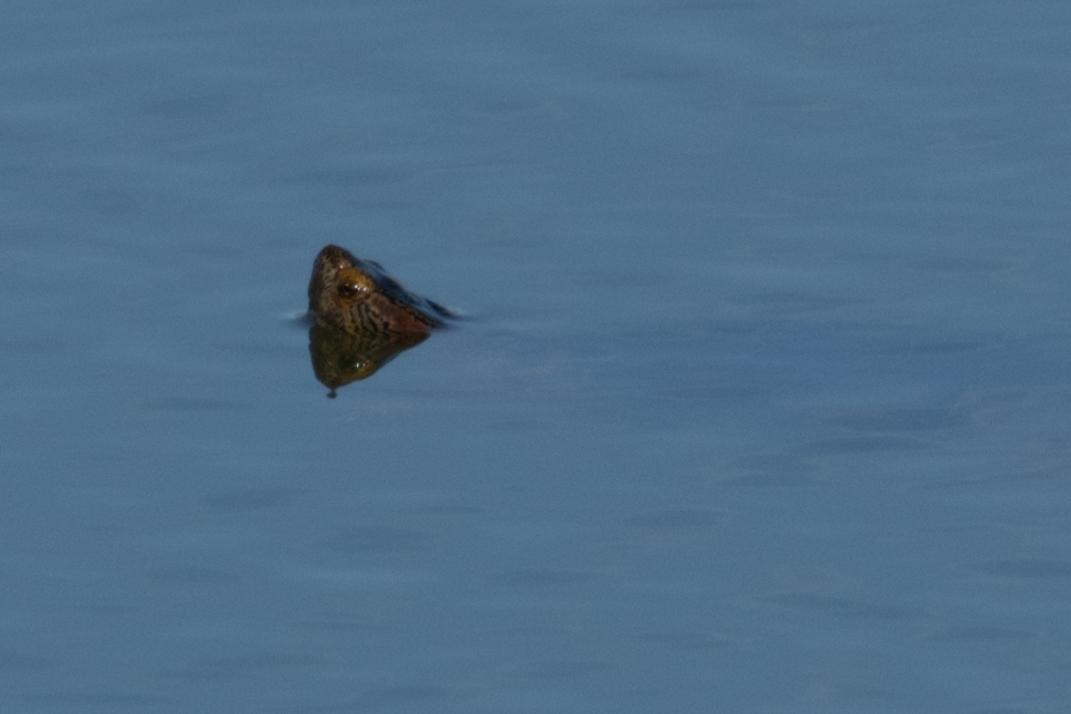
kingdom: Animalia
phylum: Chordata
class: Testudines
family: Emydidae
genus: Trachemys
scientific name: Trachemys scripta
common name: Slider
